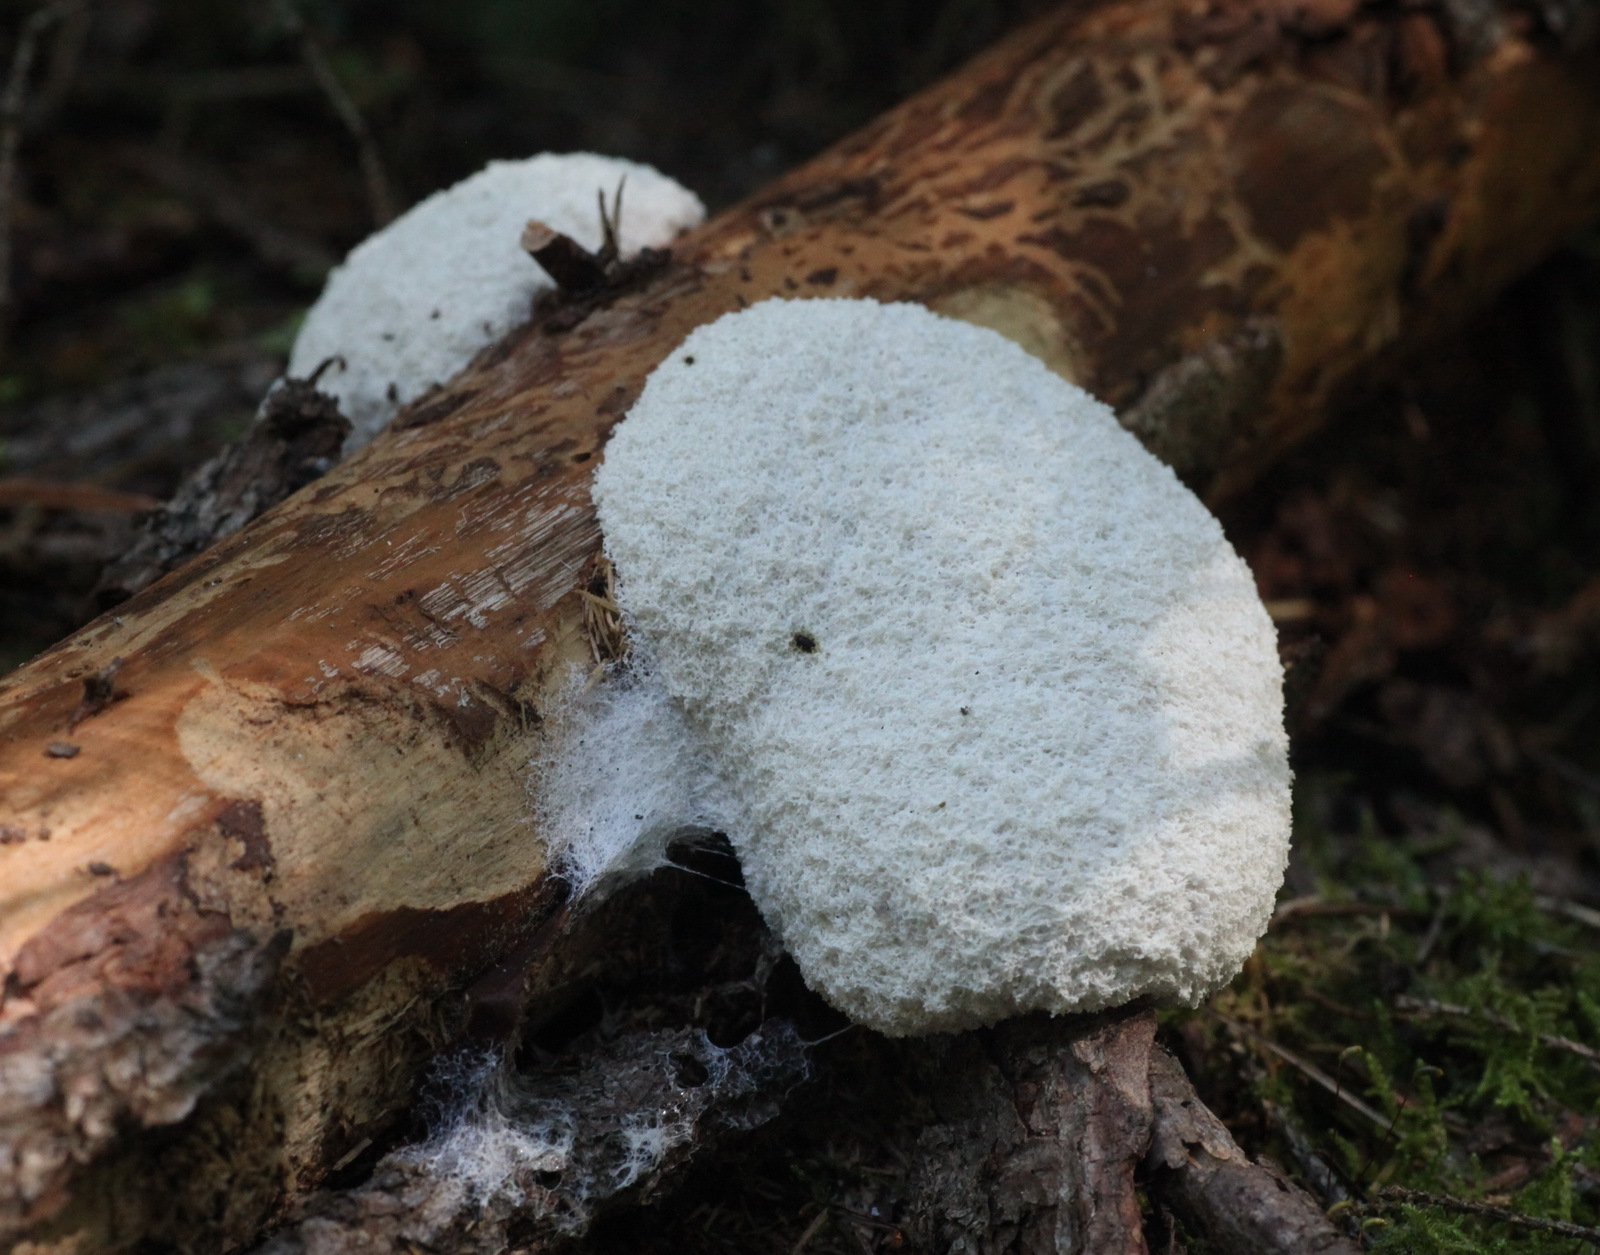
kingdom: Protozoa
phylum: Mycetozoa
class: Myxomycetes
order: Physarales
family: Physaraceae
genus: Fuligo
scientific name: Fuligo septica
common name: Dog vomit slime mold
